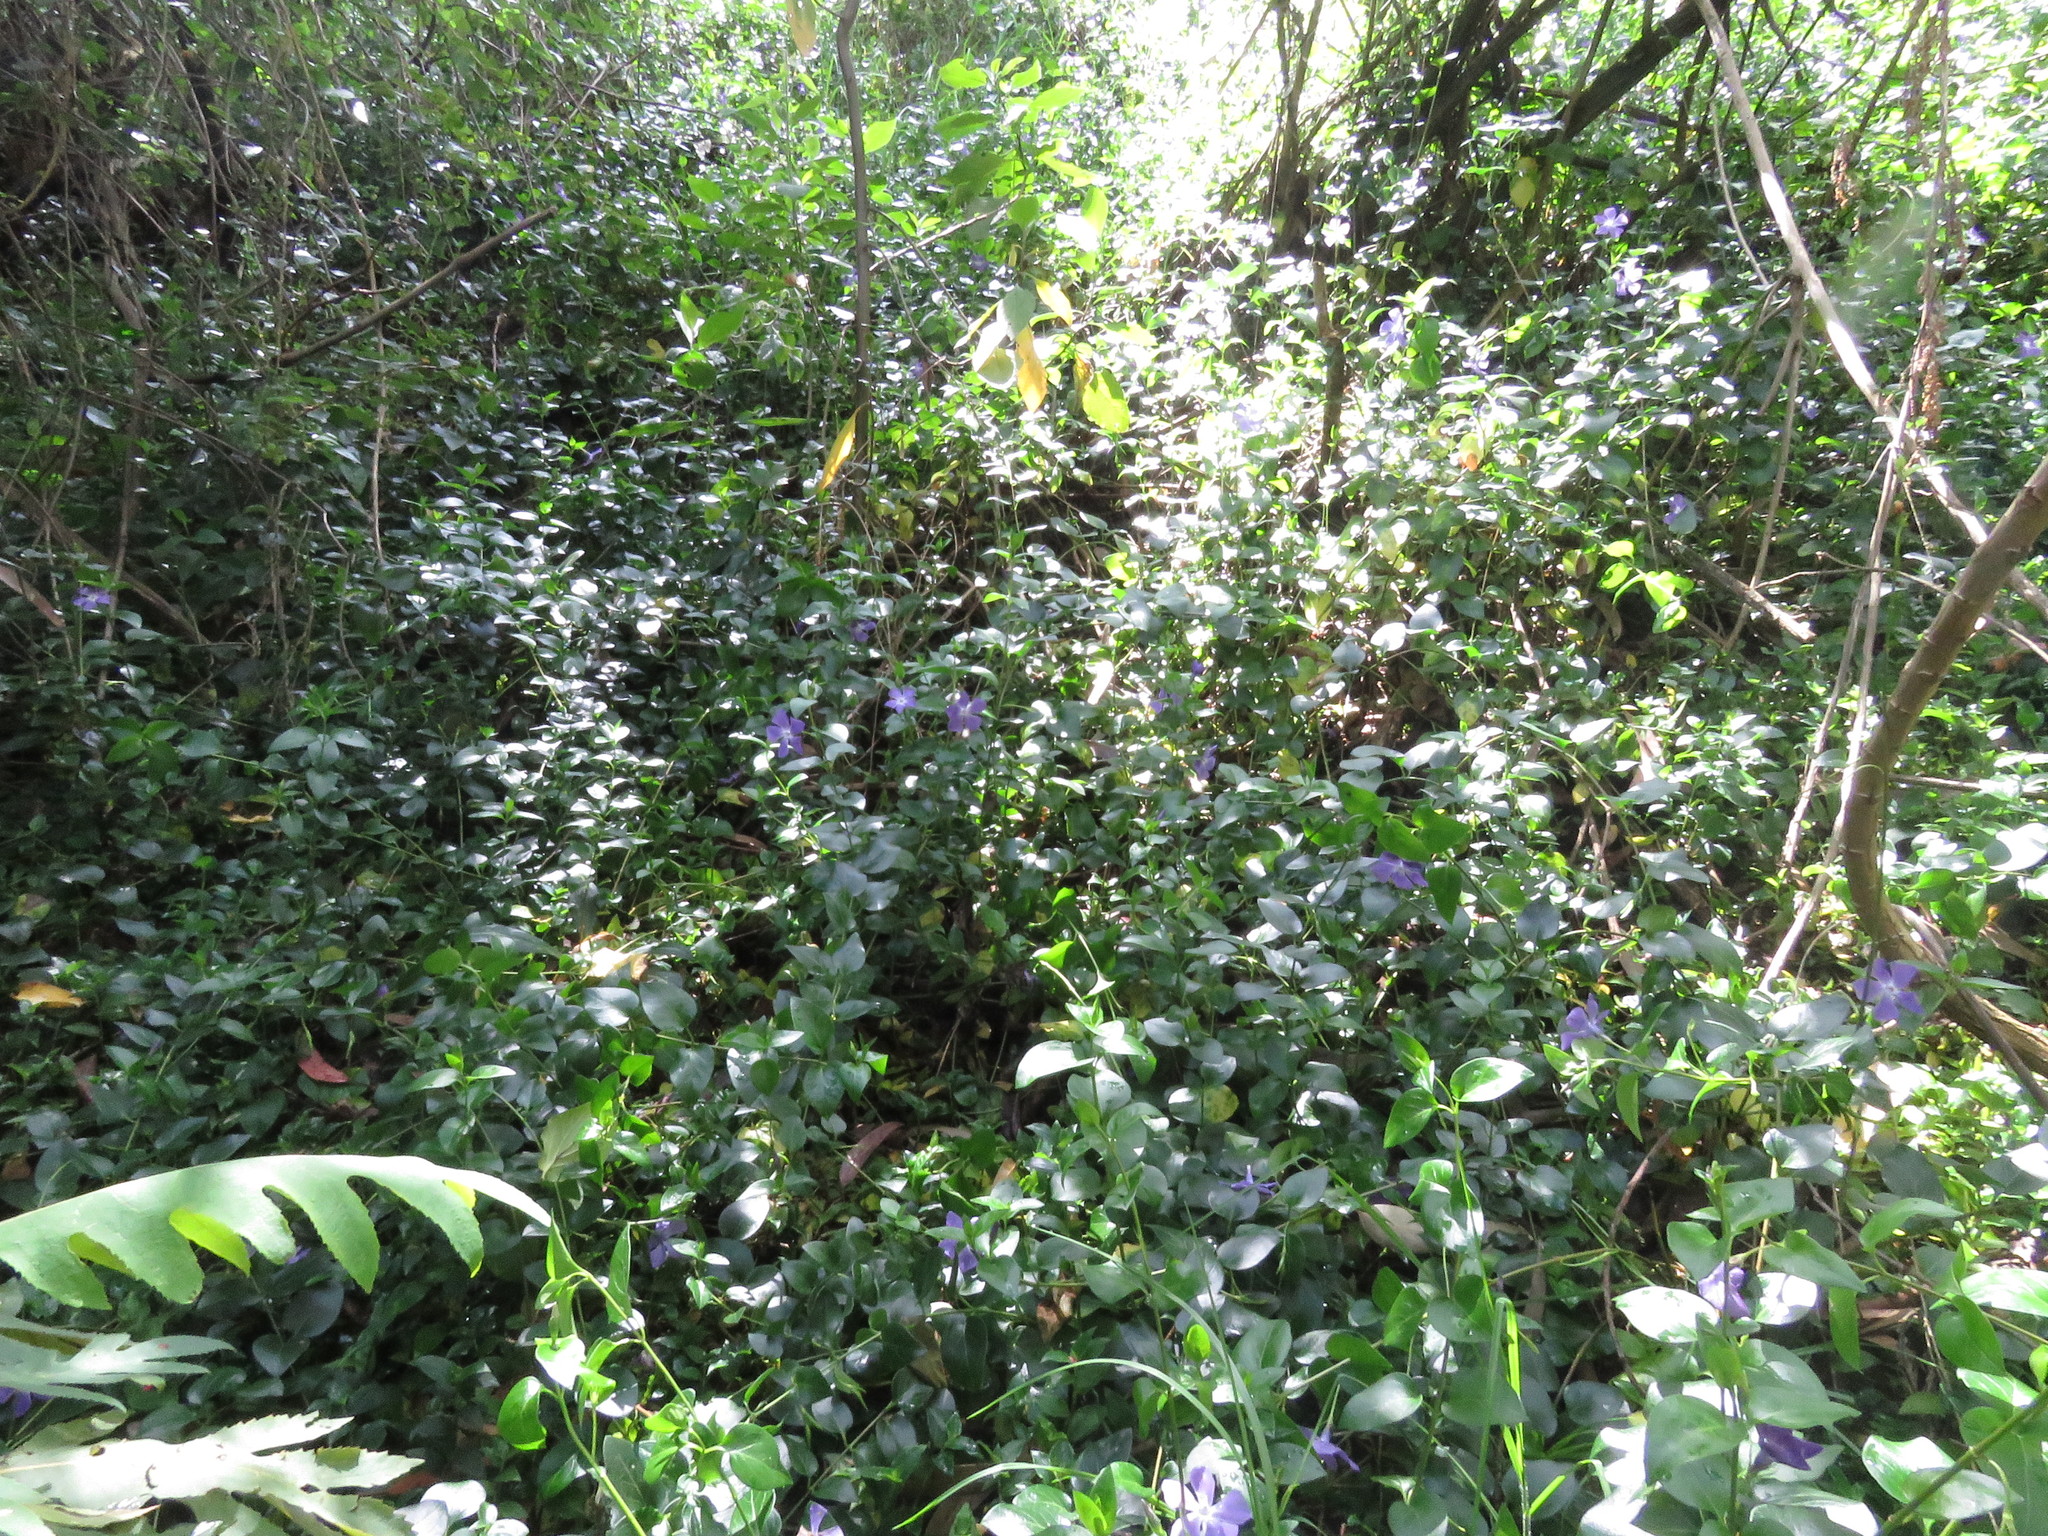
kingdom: Plantae
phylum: Tracheophyta
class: Magnoliopsida
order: Gentianales
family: Apocynaceae
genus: Vinca
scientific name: Vinca major
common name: Greater periwinkle
